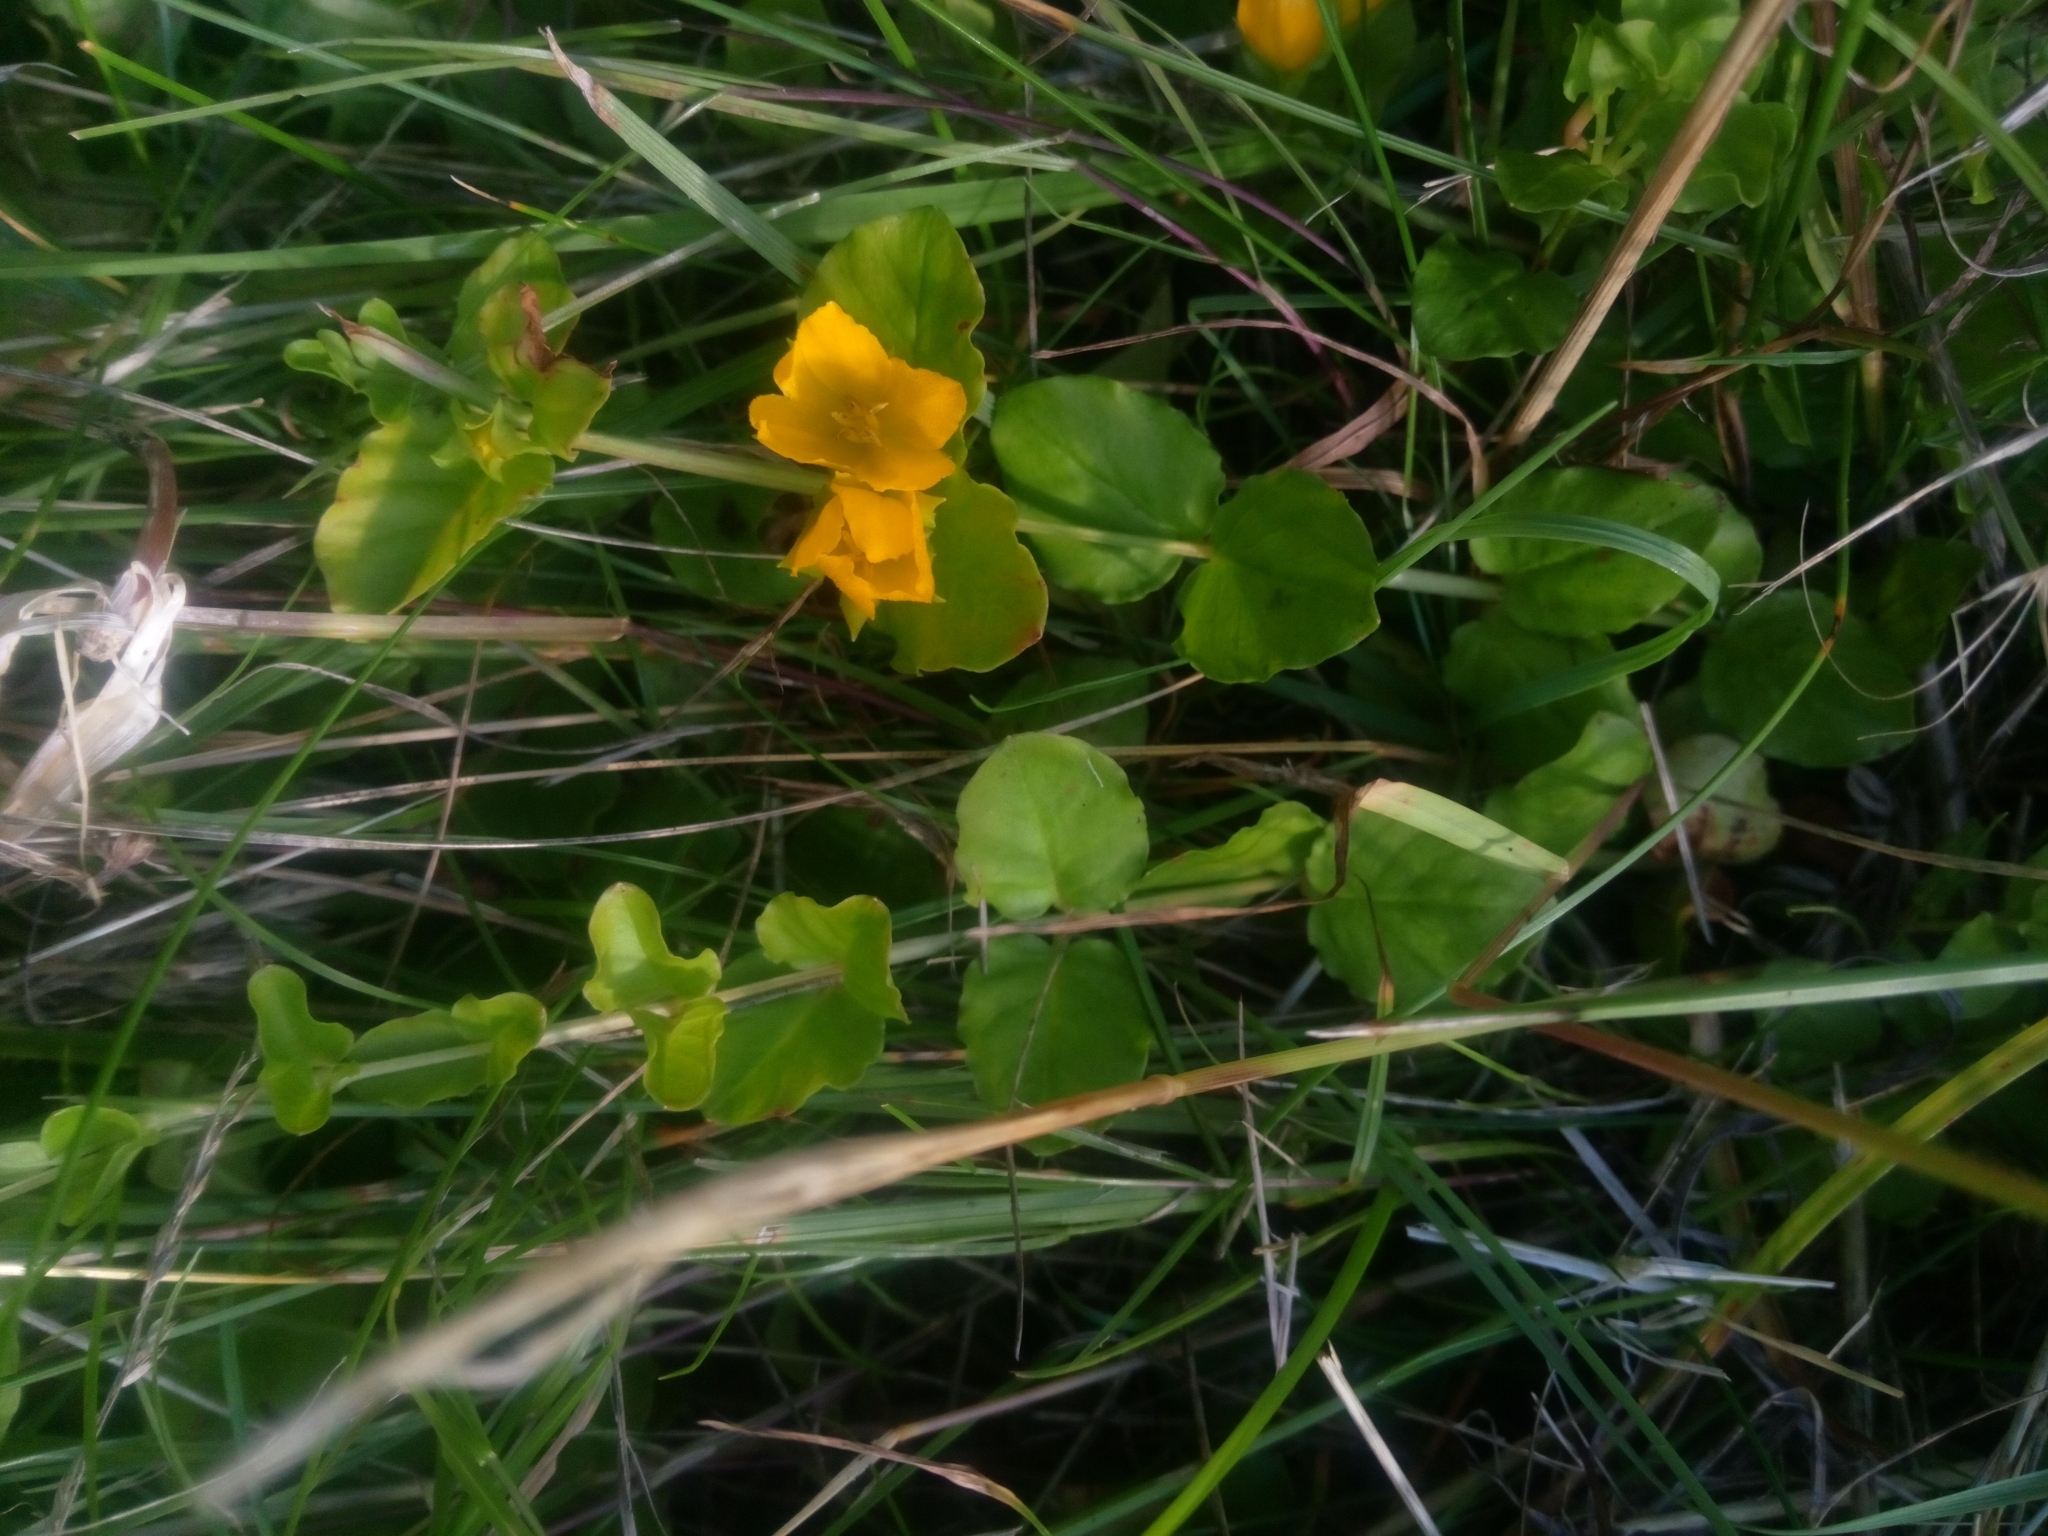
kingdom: Plantae
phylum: Tracheophyta
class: Magnoliopsida
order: Ericales
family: Primulaceae
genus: Lysimachia
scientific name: Lysimachia nummularia
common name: Moneywort
